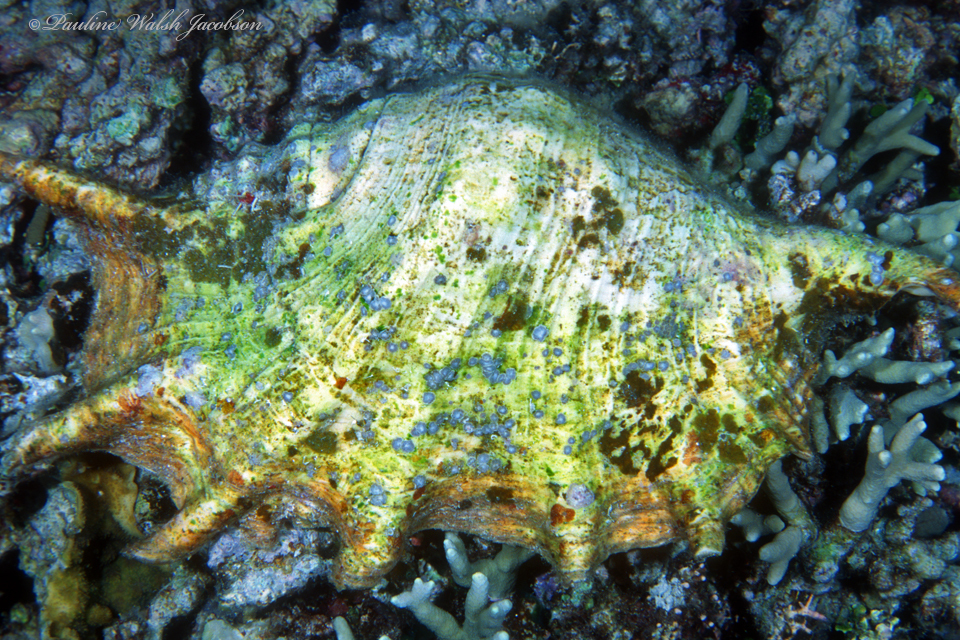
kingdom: Animalia
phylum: Mollusca
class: Gastropoda
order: Littorinimorpha
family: Strombidae
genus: Lambis
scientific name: Lambis truncata
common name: Giant spider conch
